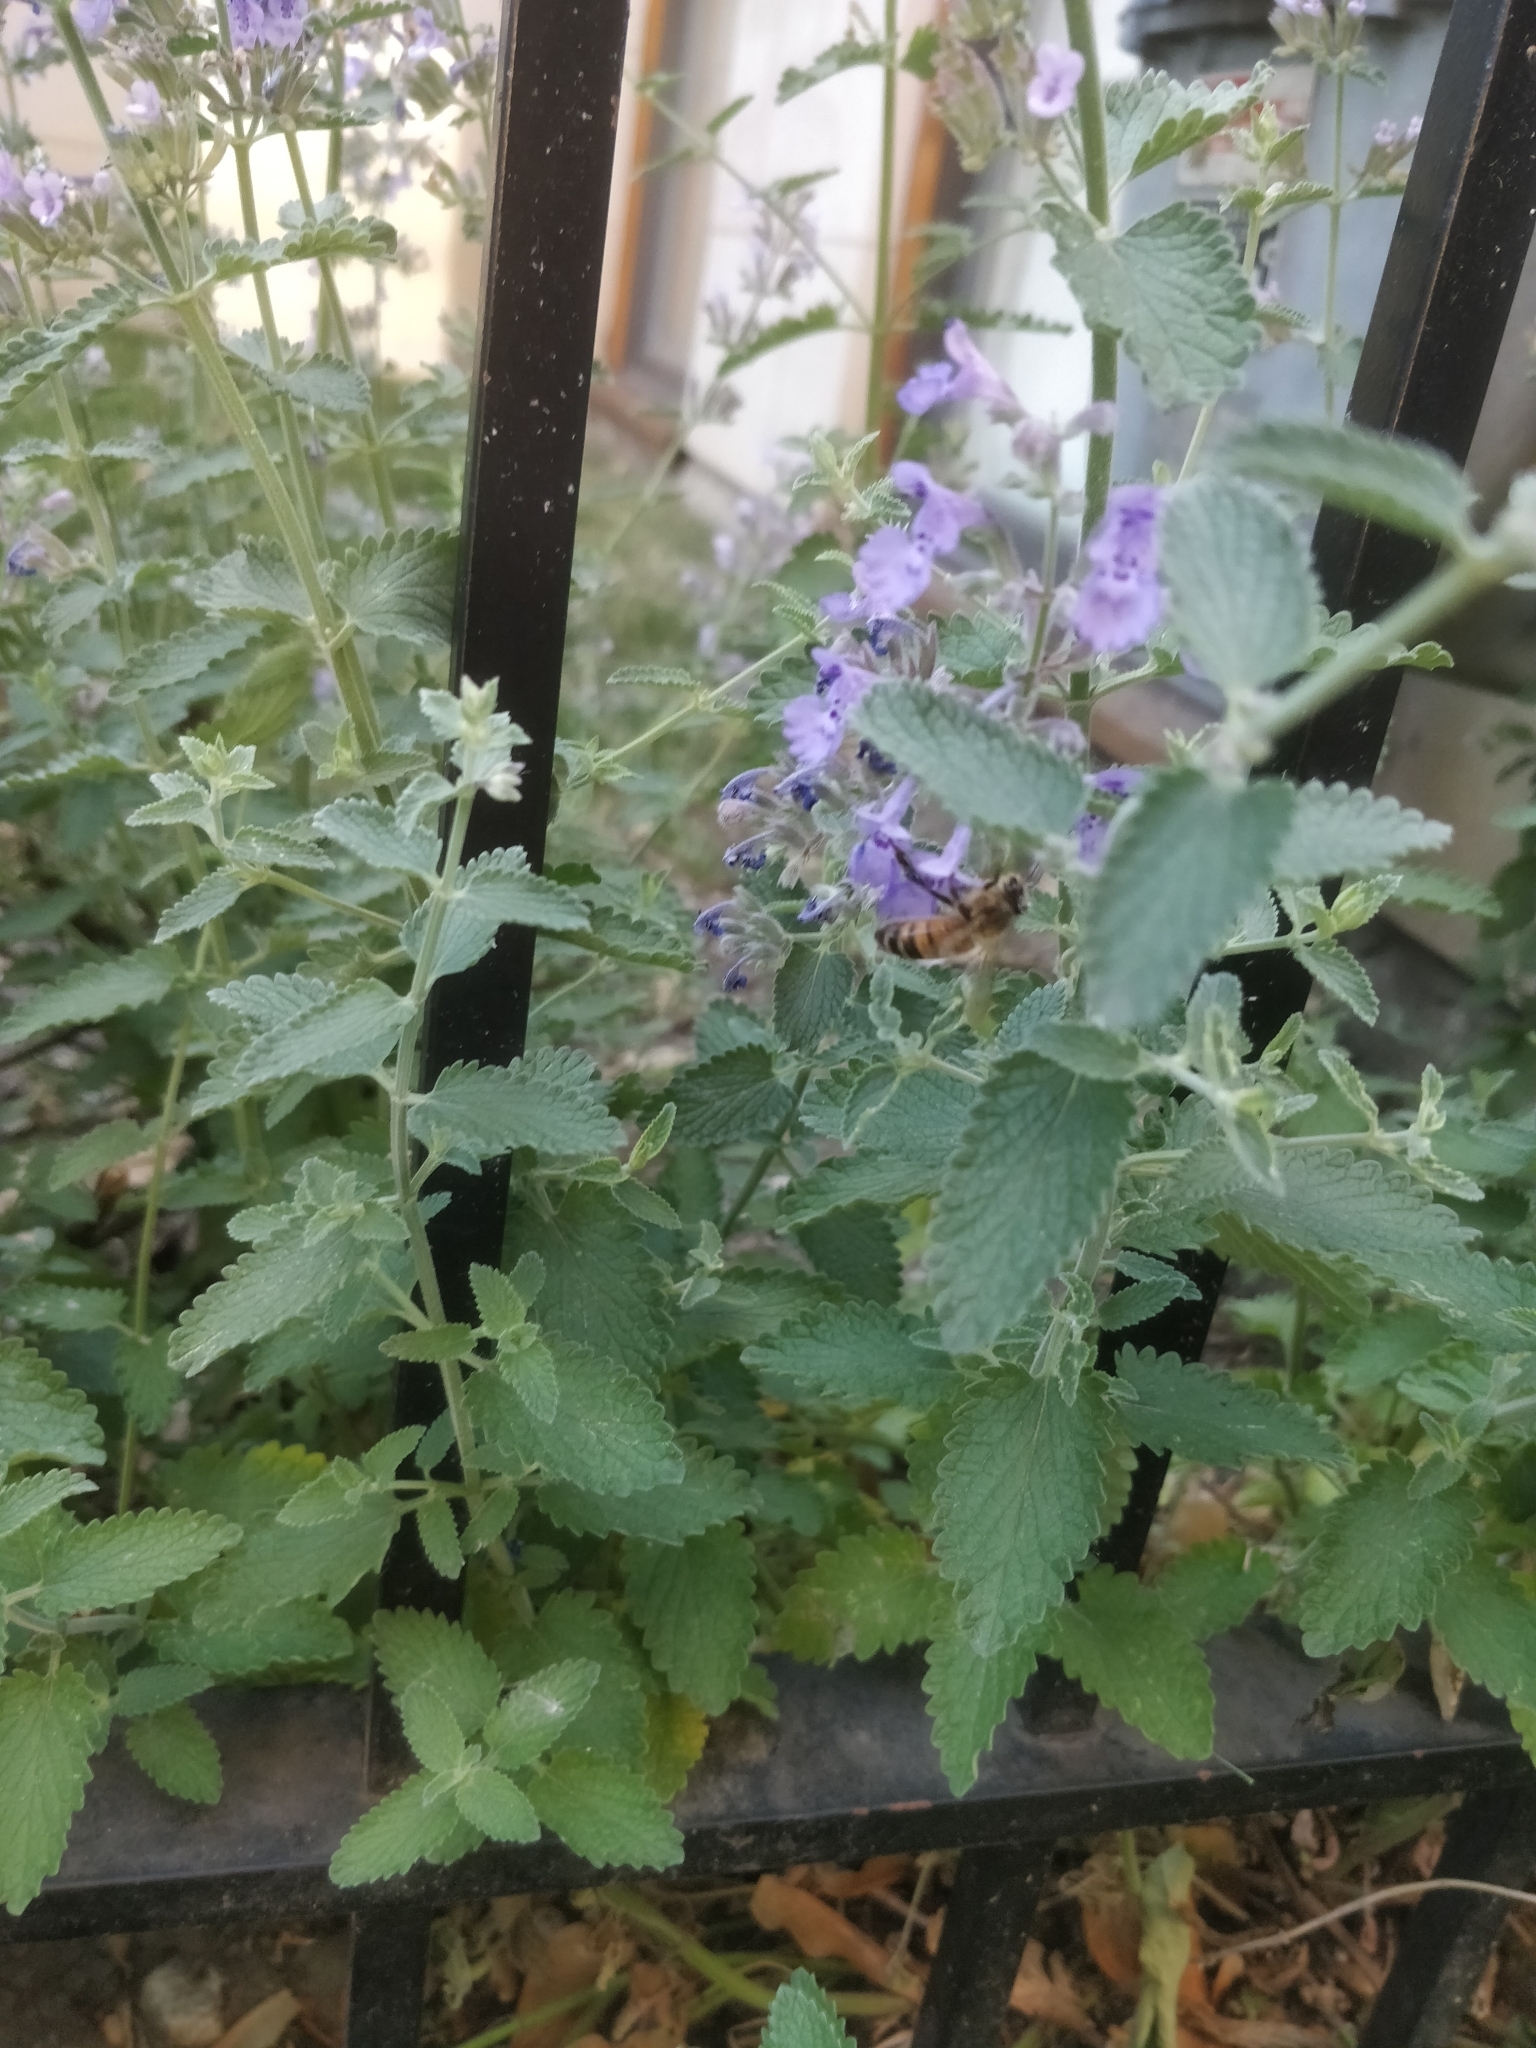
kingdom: Animalia
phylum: Arthropoda
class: Insecta
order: Hymenoptera
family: Apidae
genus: Apis
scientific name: Apis mellifera
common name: Honey bee
